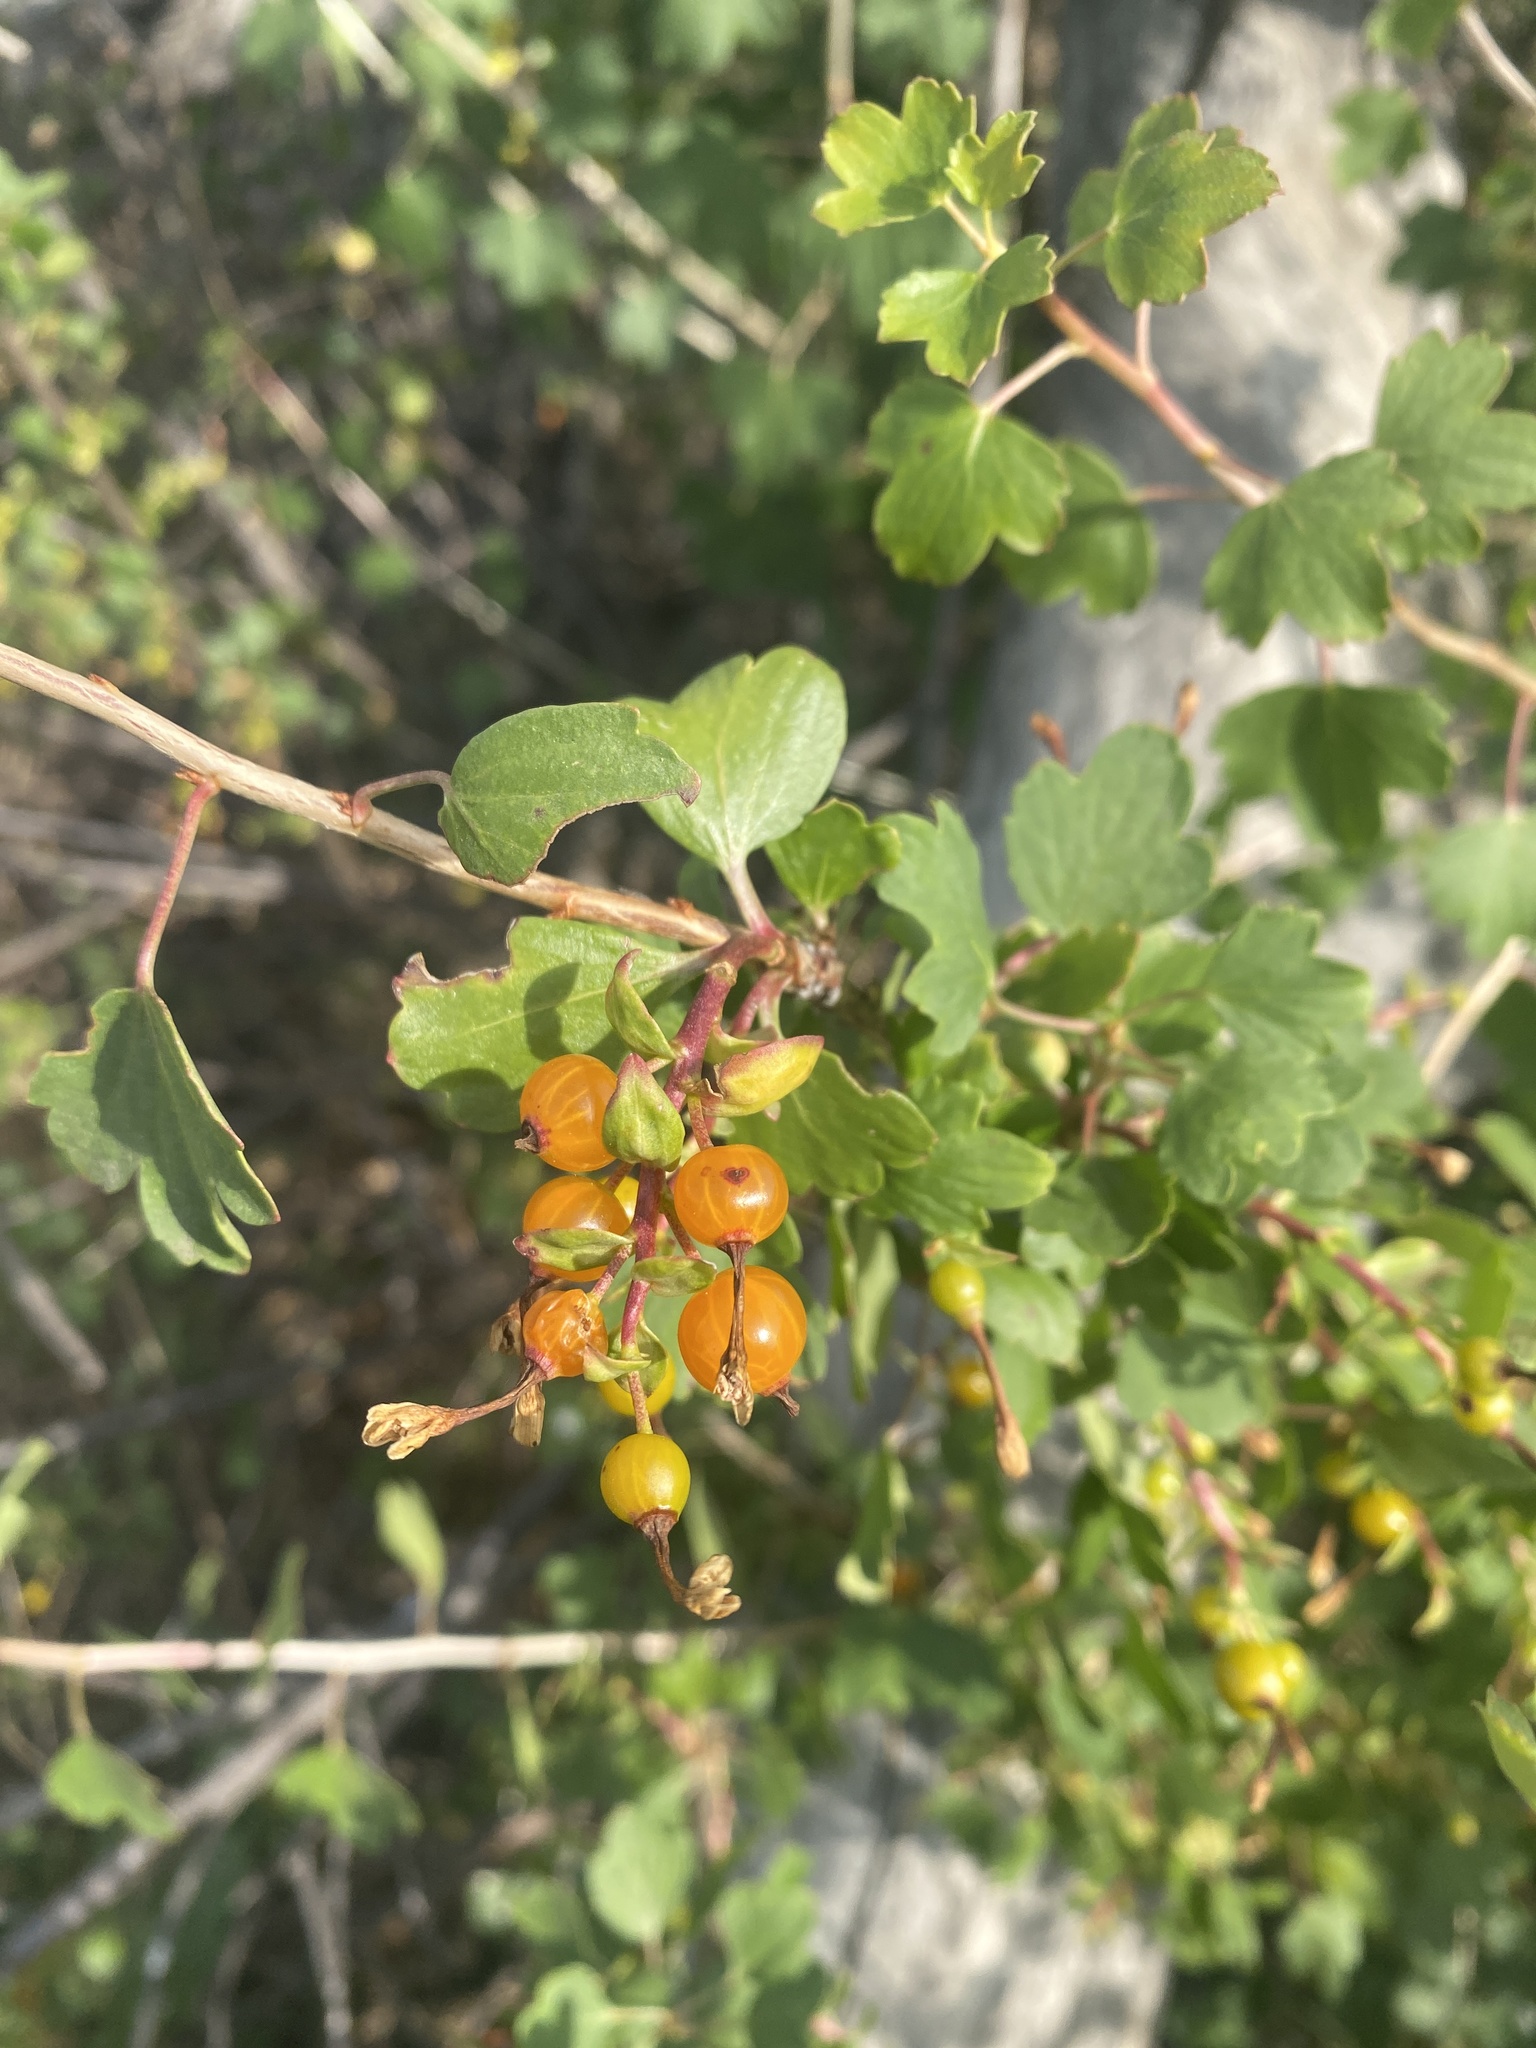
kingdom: Plantae
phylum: Tracheophyta
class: Magnoliopsida
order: Saxifragales
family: Grossulariaceae
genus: Ribes
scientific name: Ribes aureum
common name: Golden currant
